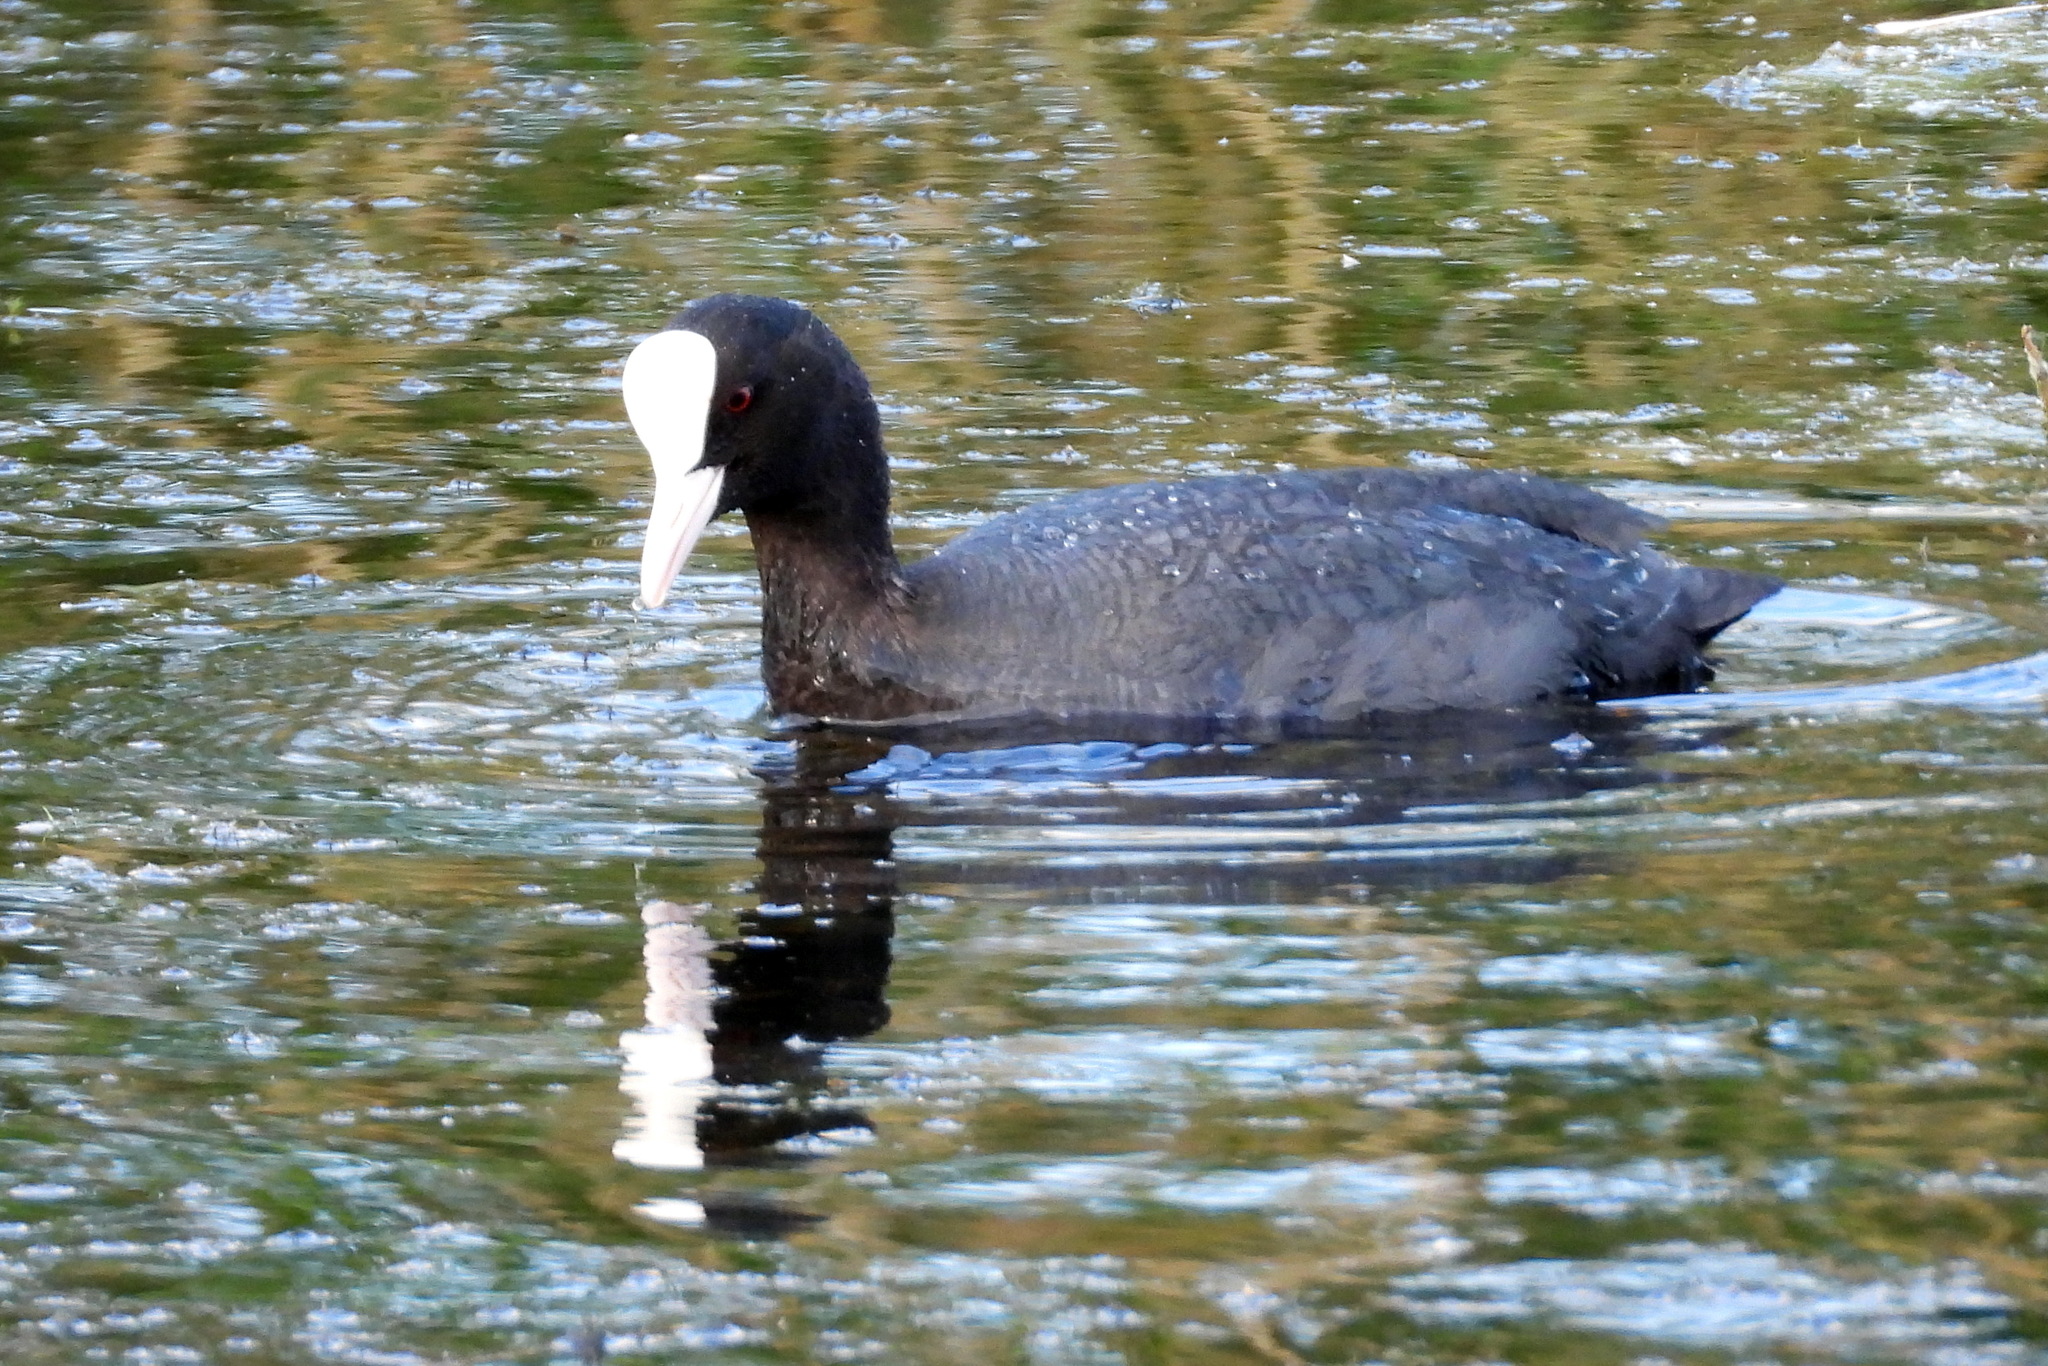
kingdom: Animalia
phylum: Chordata
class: Aves
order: Gruiformes
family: Rallidae
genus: Fulica
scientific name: Fulica atra
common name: Eurasian coot
